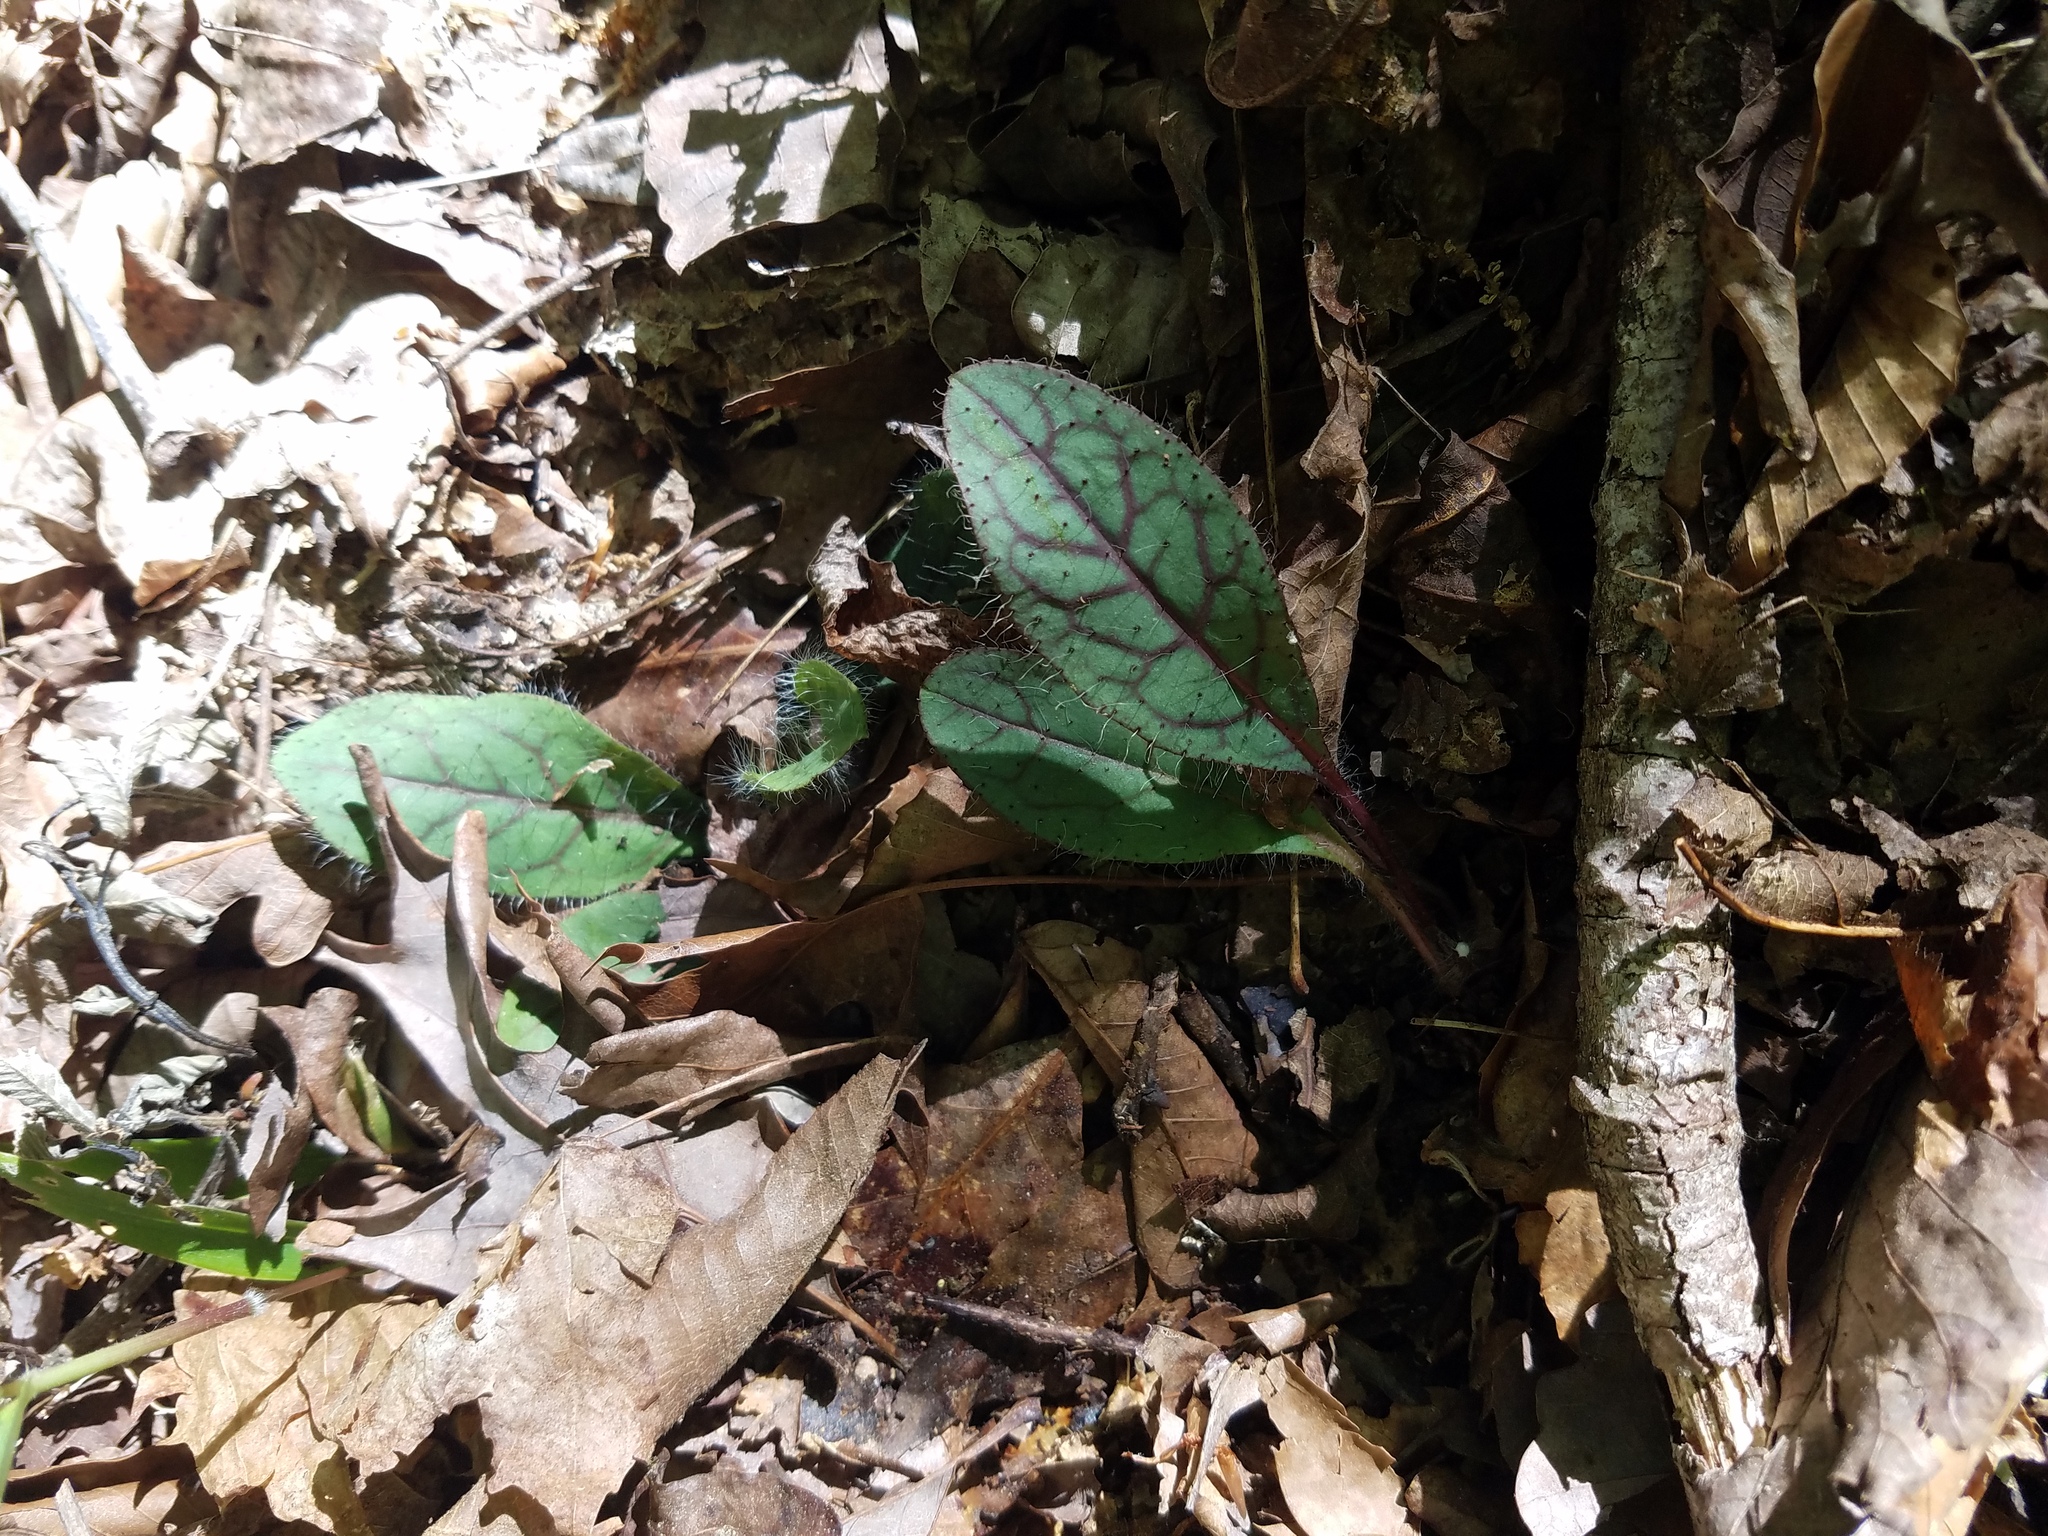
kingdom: Plantae
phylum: Tracheophyta
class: Magnoliopsida
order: Asterales
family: Asteraceae
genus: Hieracium
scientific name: Hieracium venosum
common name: Rattlesnake hawkweed
